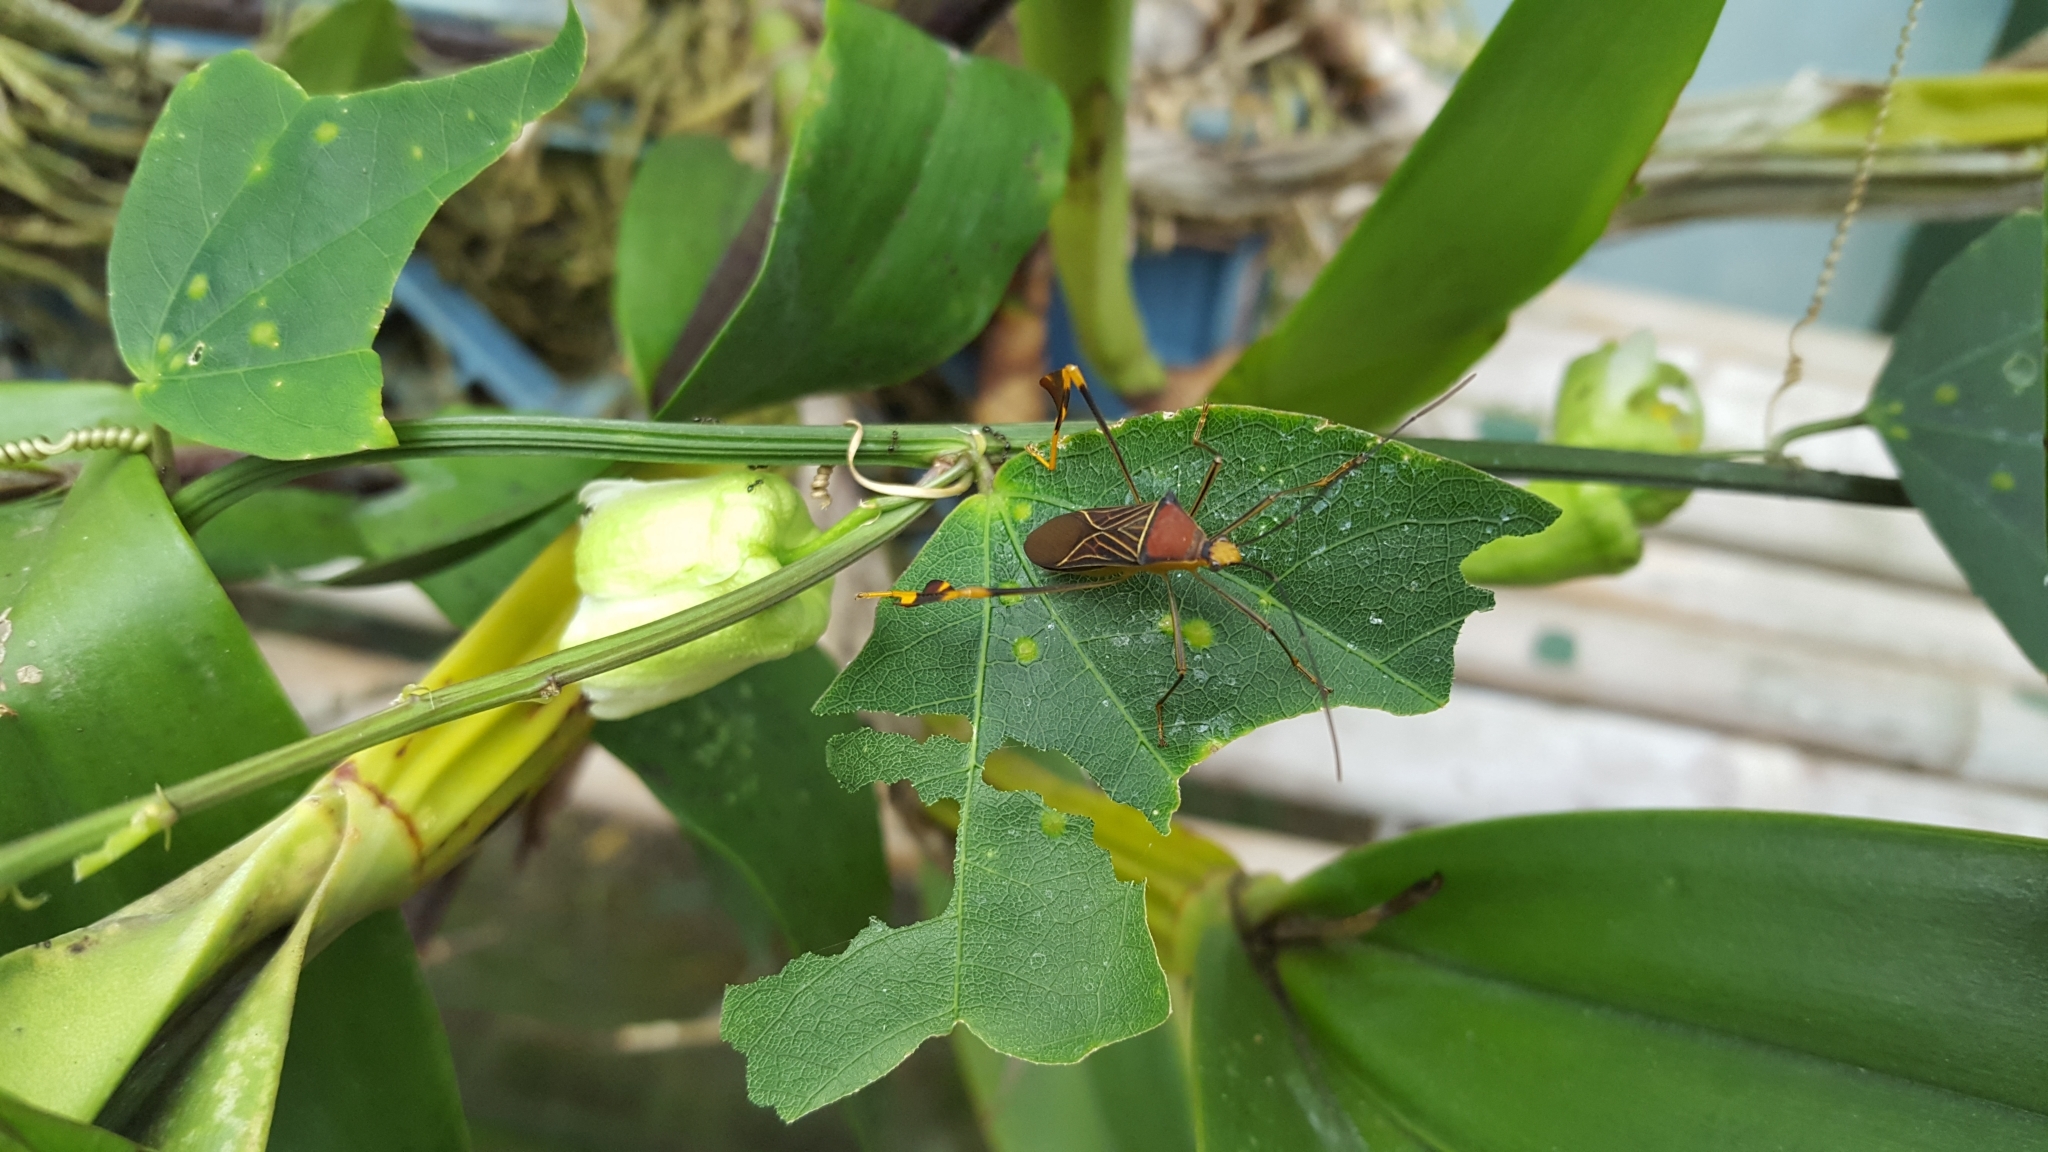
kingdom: Animalia
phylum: Arthropoda
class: Insecta
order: Hemiptera
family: Coreidae
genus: Anisoscelis
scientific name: Anisoscelis gradadius
